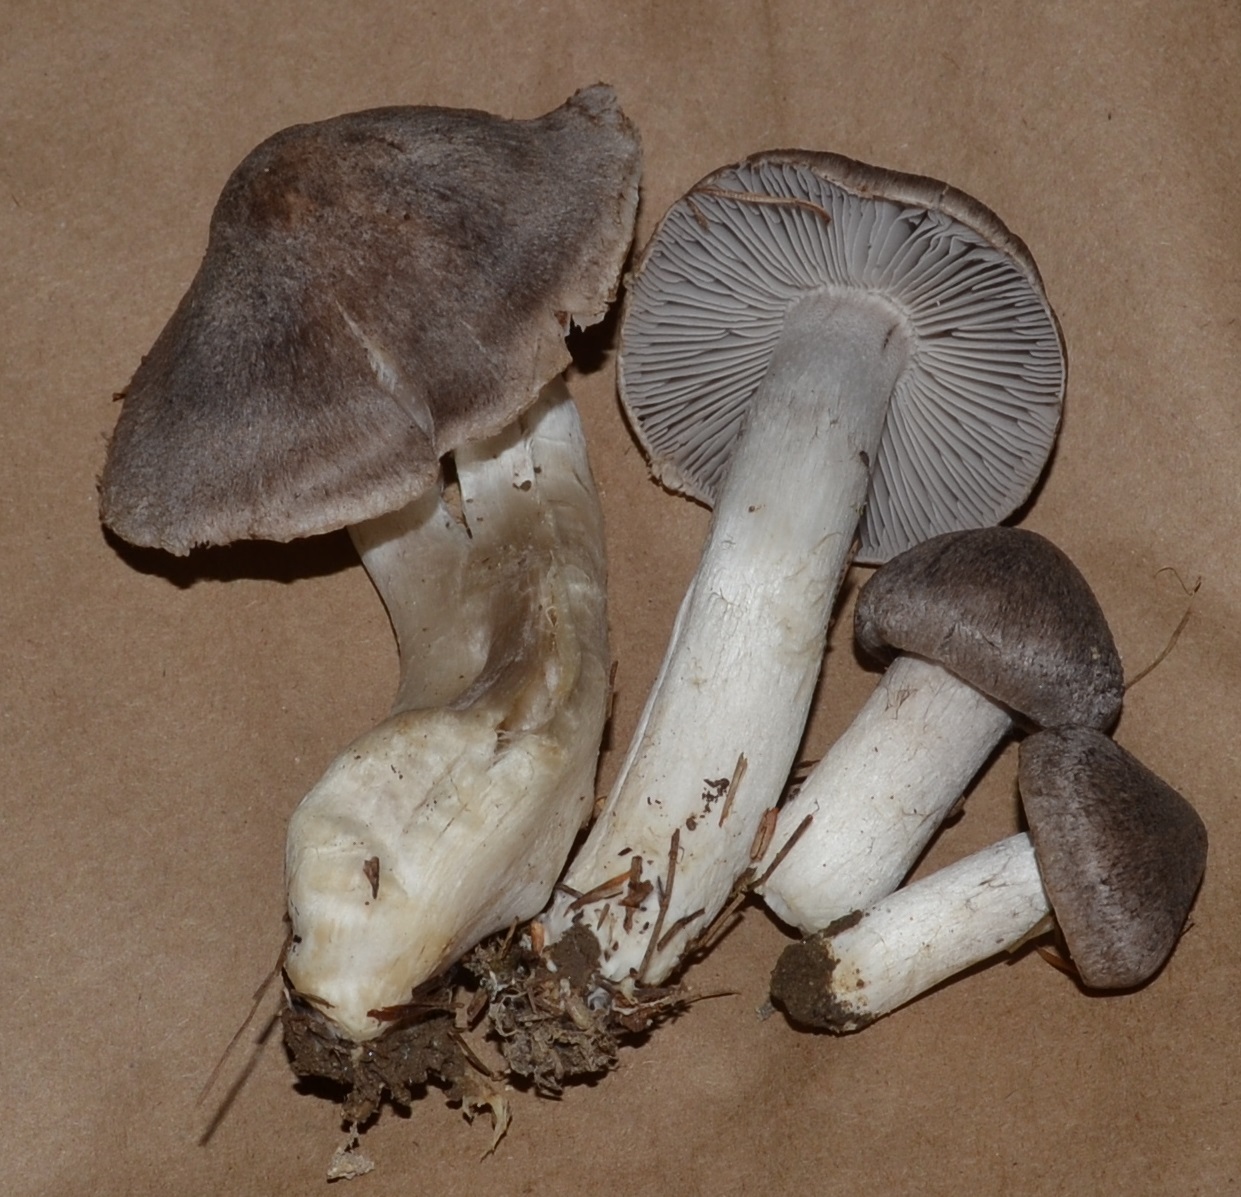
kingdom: Fungi
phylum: Basidiomycota
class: Agaricomycetes
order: Agaricales
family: Tricholomataceae
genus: Tricholoma
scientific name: Tricholoma terreum
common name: Grey knight
